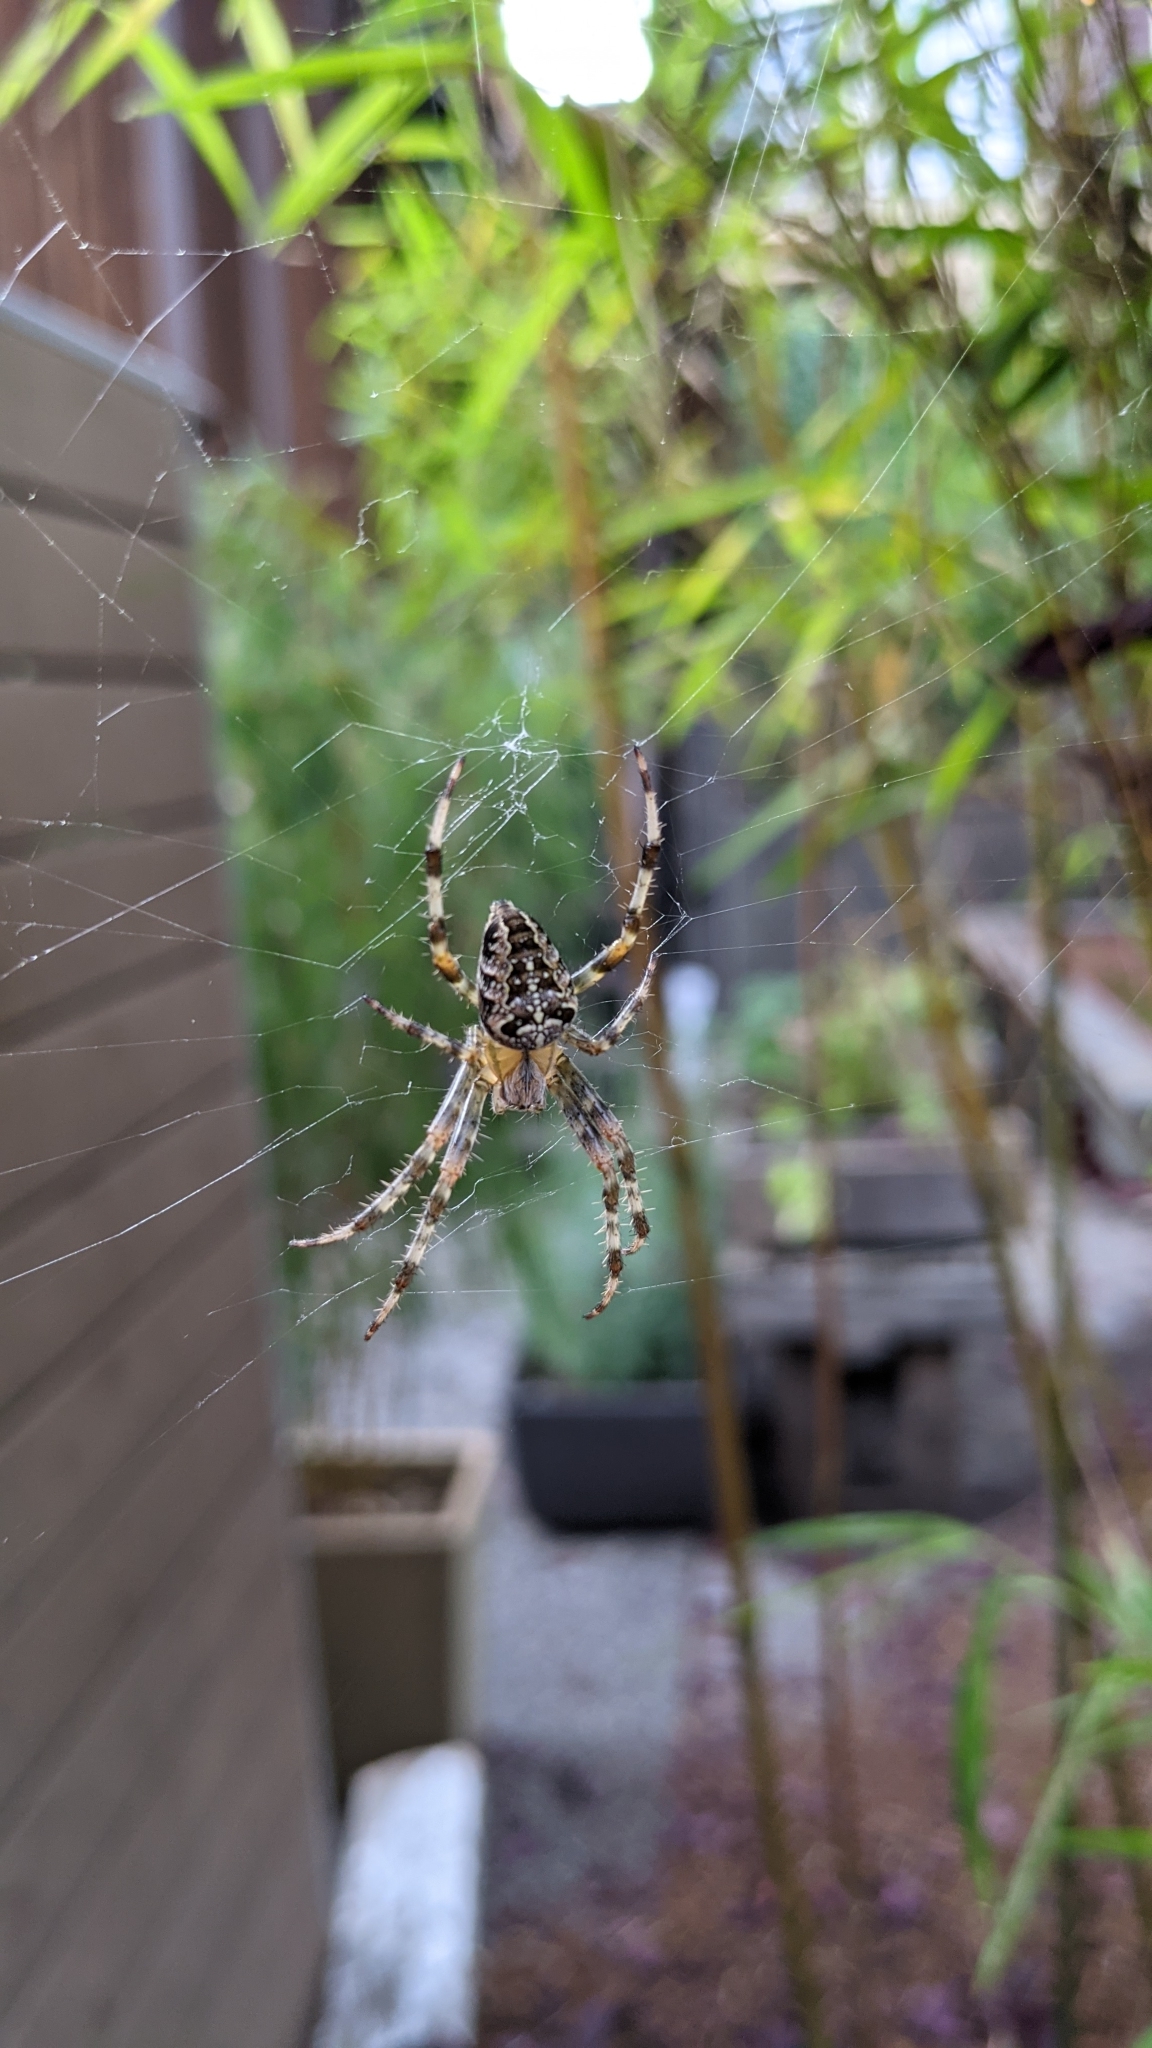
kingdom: Animalia
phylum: Arthropoda
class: Arachnida
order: Araneae
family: Araneidae
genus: Araneus
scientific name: Araneus diadematus
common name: Cross orbweaver
